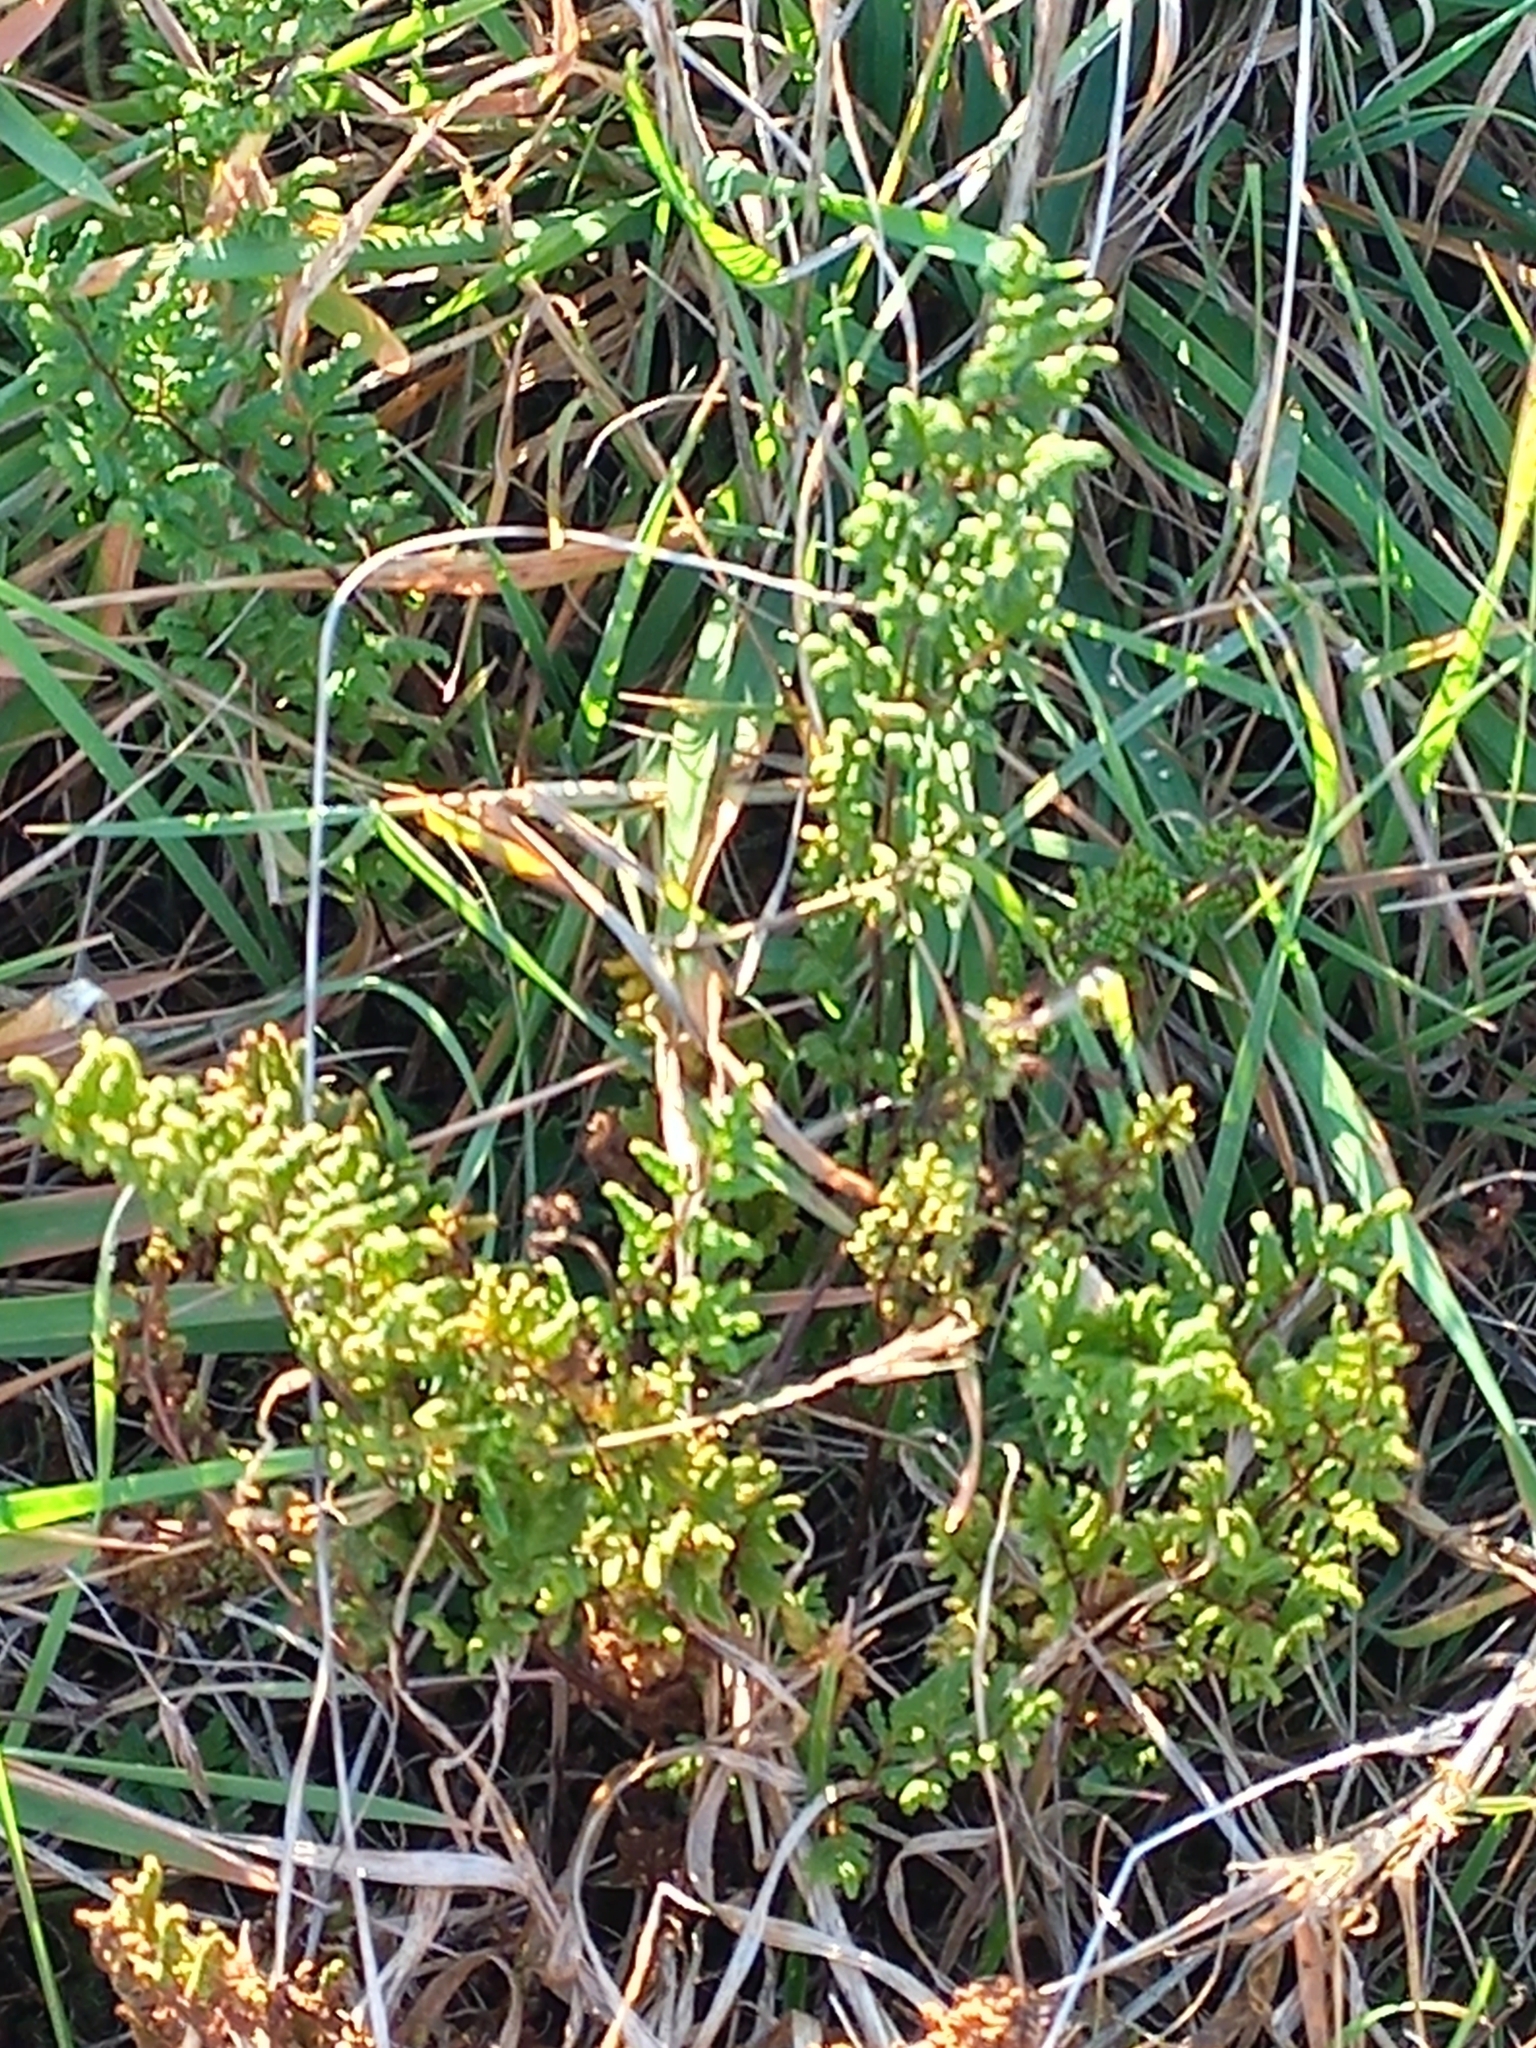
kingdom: Plantae
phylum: Tracheophyta
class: Polypodiopsida
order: Polypodiales
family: Pteridaceae
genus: Cheilanthes
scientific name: Cheilanthes sieberi
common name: Mulga fern
